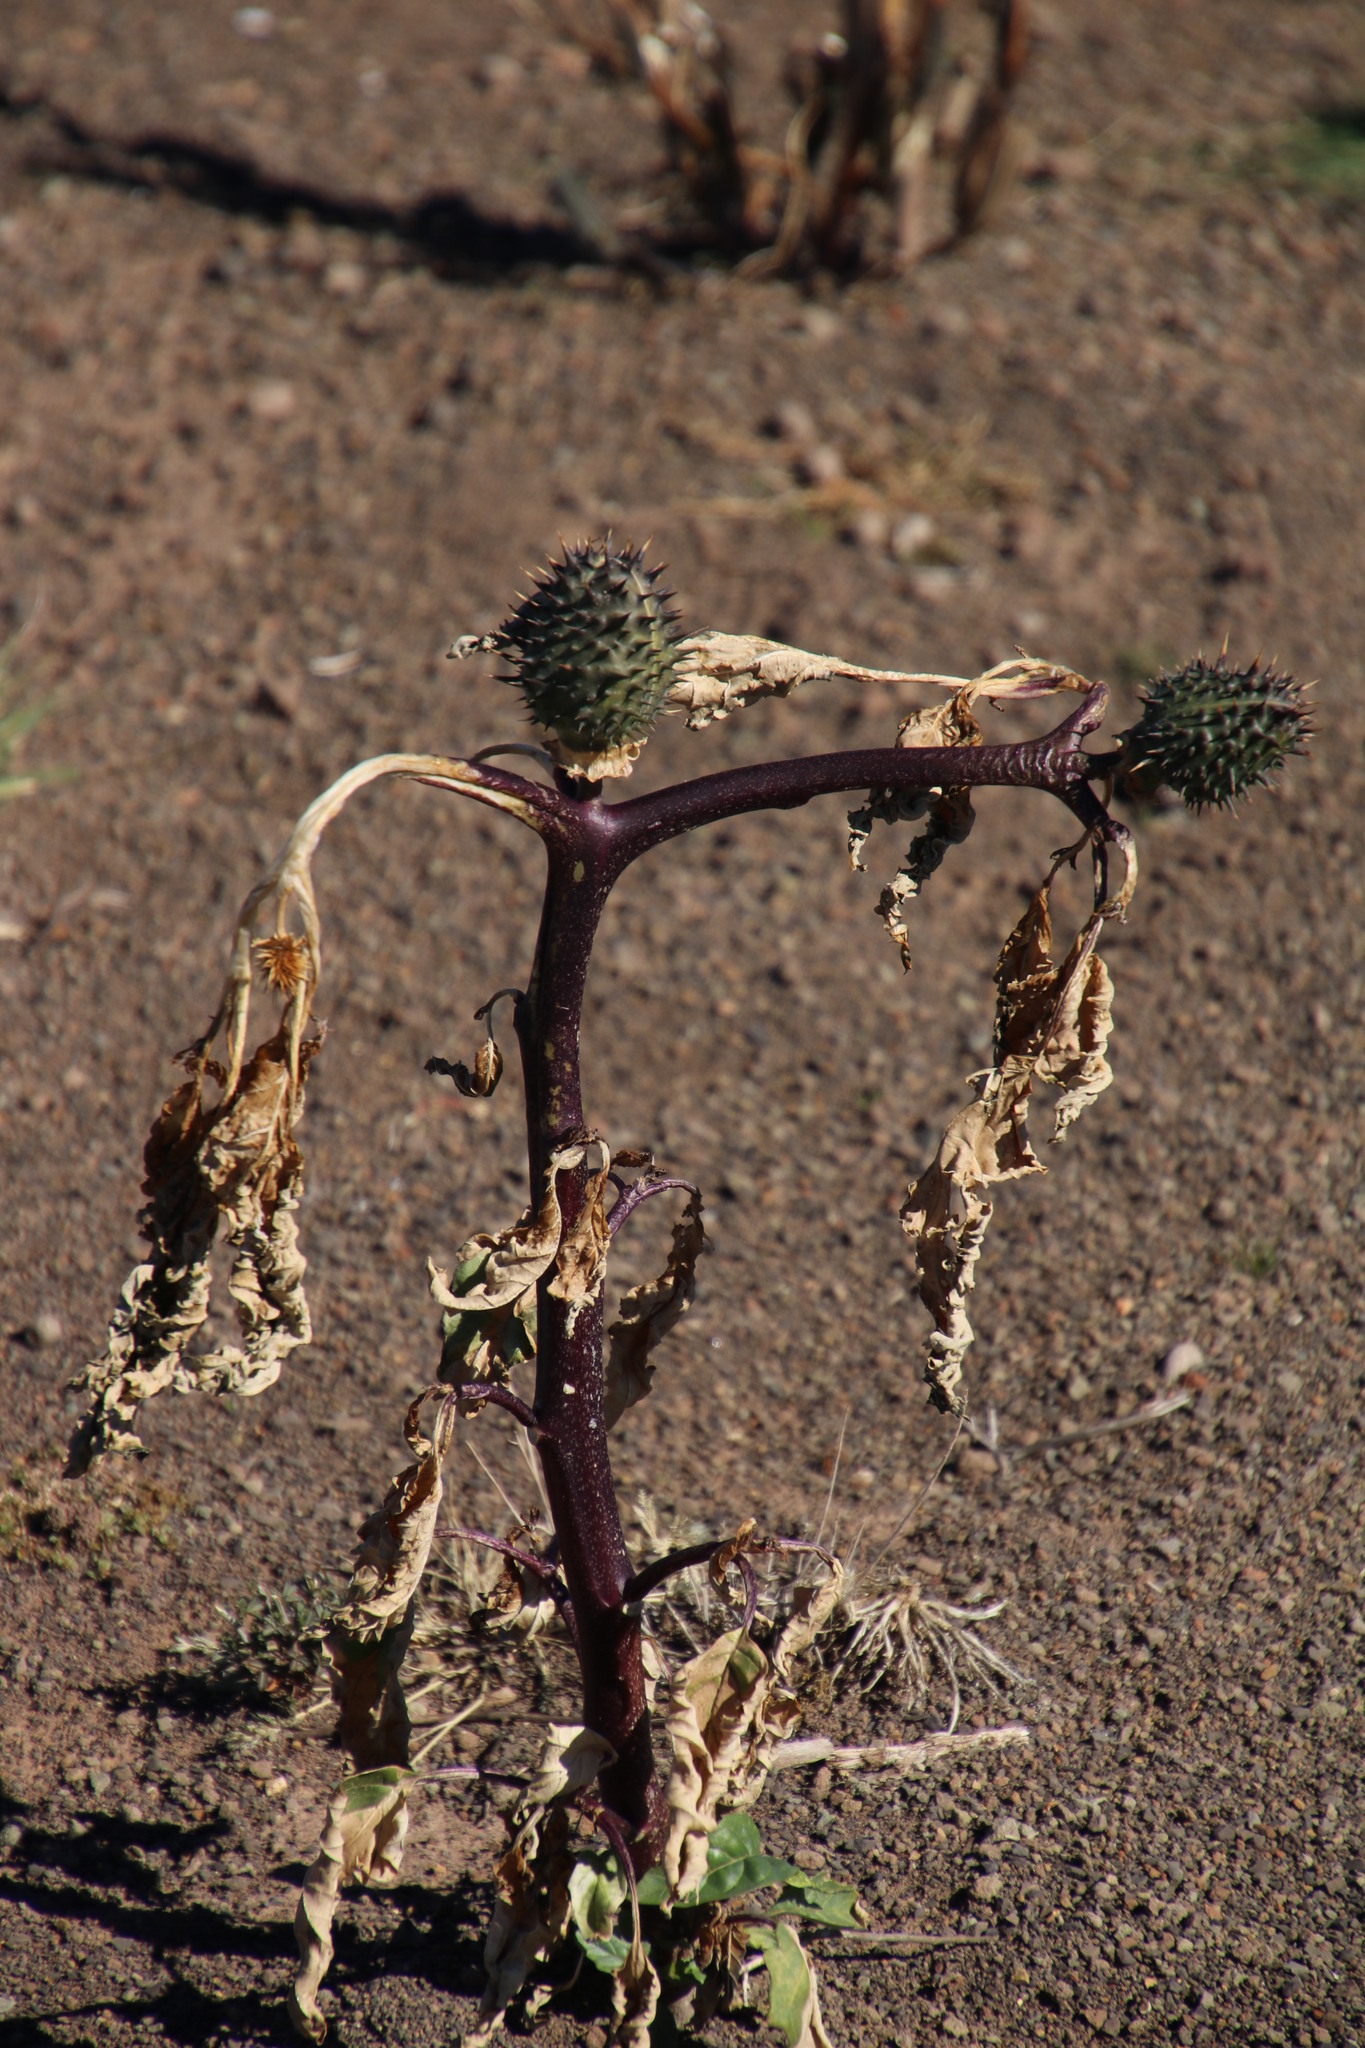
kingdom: Plantae
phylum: Tracheophyta
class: Magnoliopsida
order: Solanales
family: Solanaceae
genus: Datura
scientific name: Datura stramonium
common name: Thorn-apple
